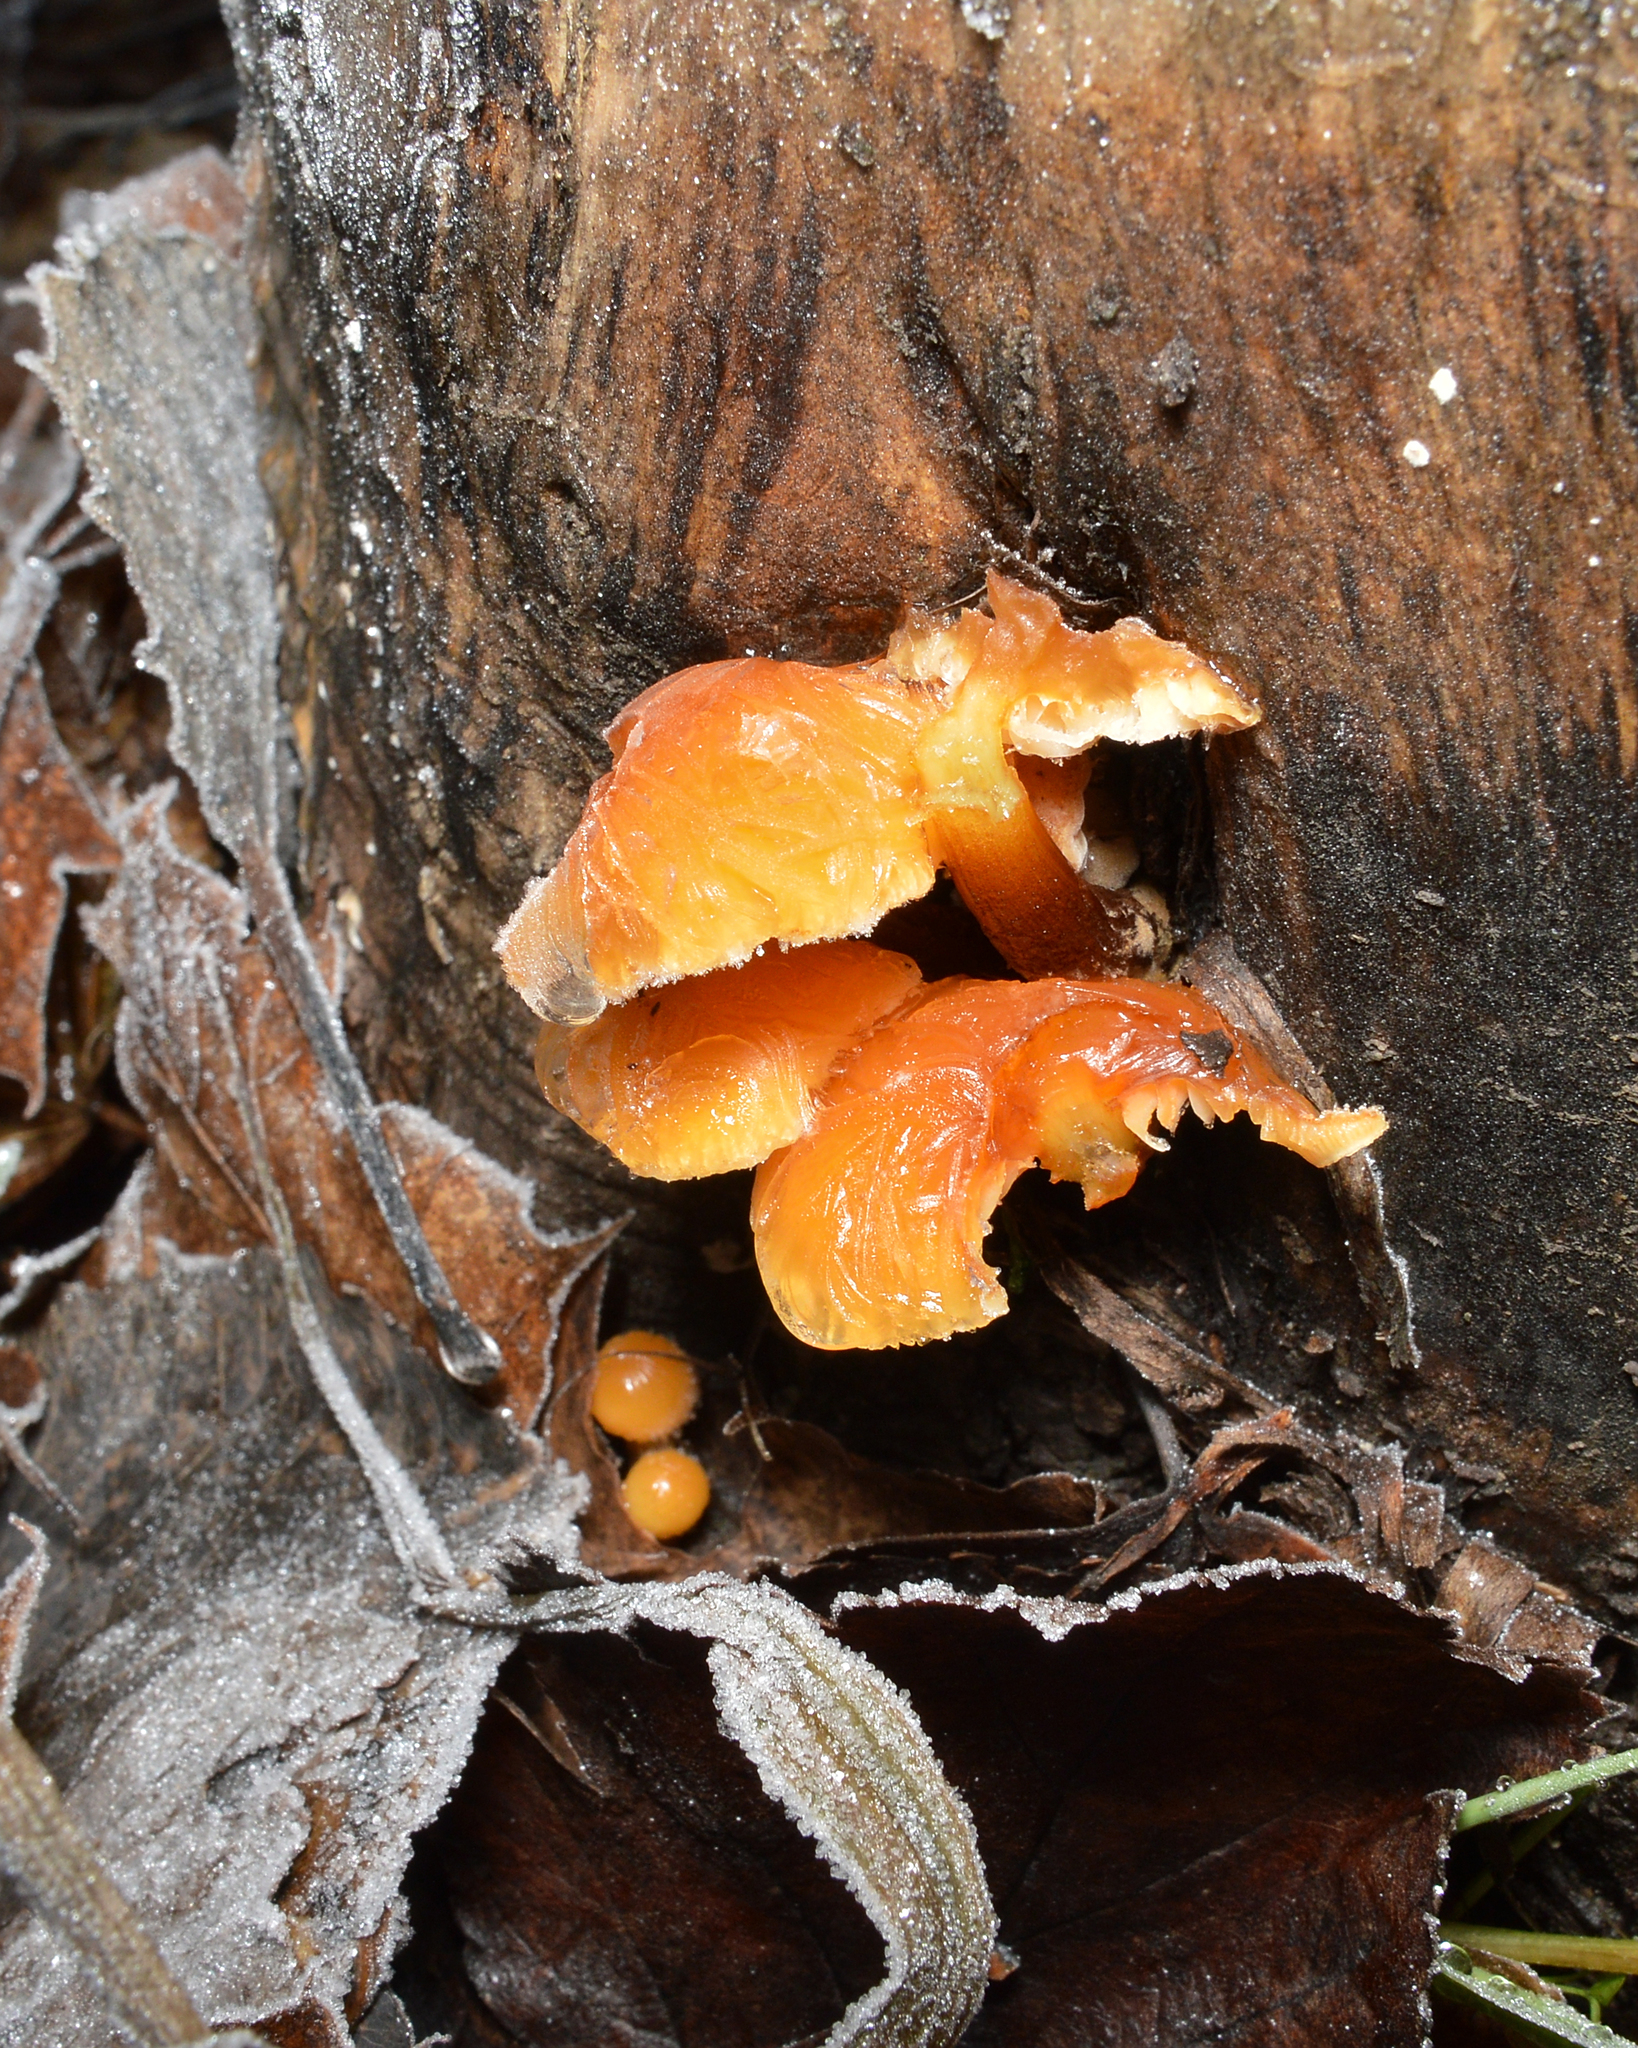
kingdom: Fungi
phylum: Basidiomycota
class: Agaricomycetes
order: Agaricales
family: Physalacriaceae
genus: Flammulina
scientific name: Flammulina
